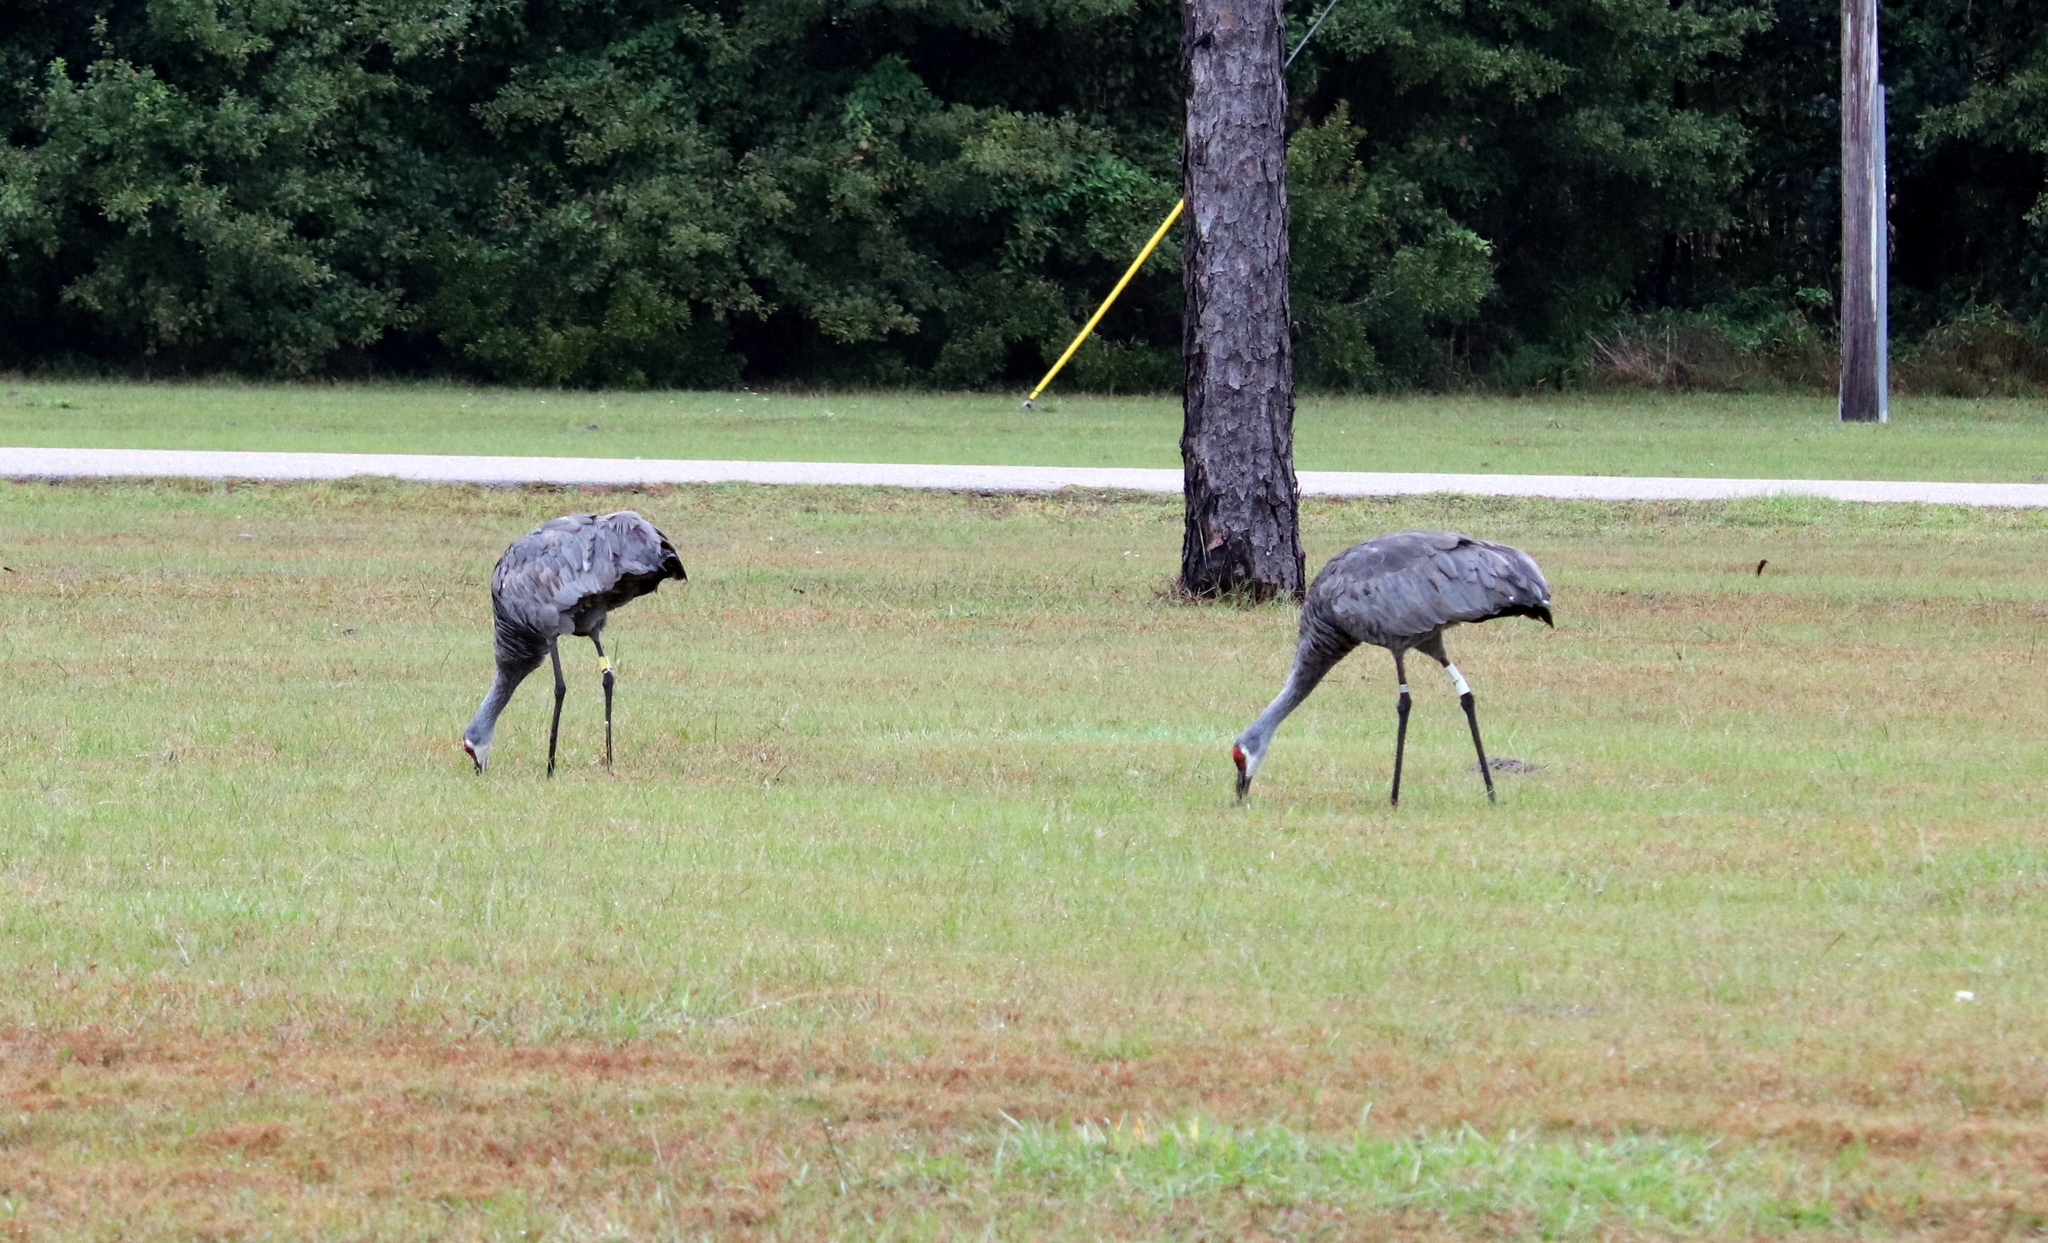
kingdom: Animalia
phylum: Chordata
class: Aves
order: Gruiformes
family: Gruidae
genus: Grus
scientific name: Grus canadensis
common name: Sandhill crane
